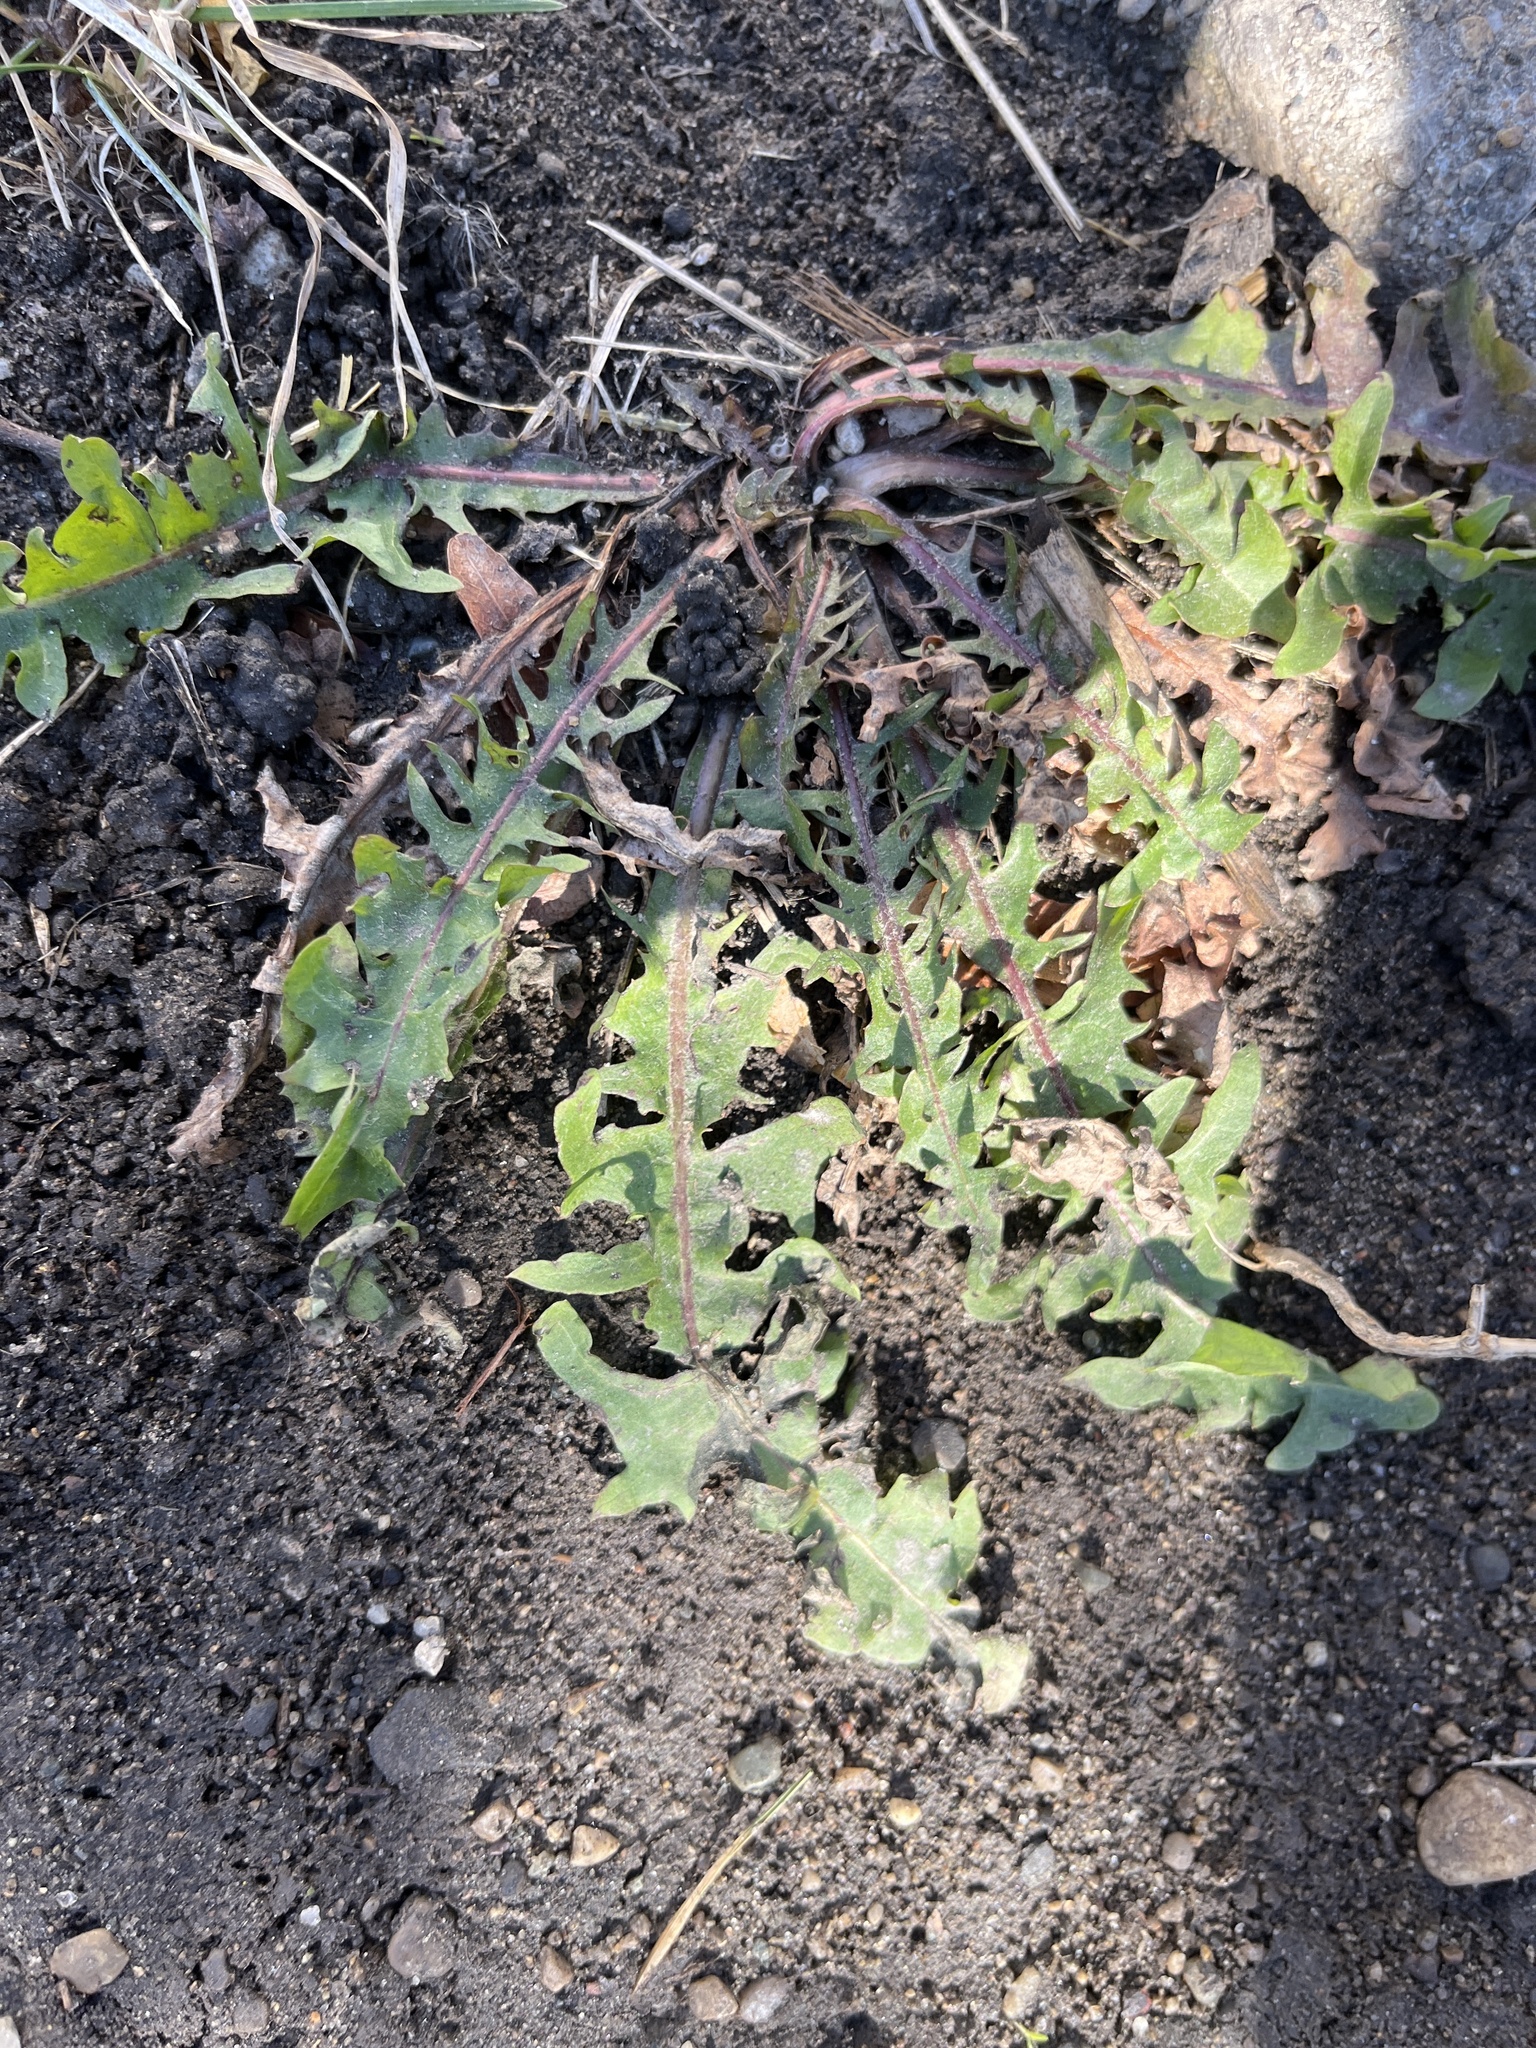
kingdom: Plantae
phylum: Tracheophyta
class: Magnoliopsida
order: Asterales
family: Asteraceae
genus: Taraxacum
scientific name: Taraxacum
